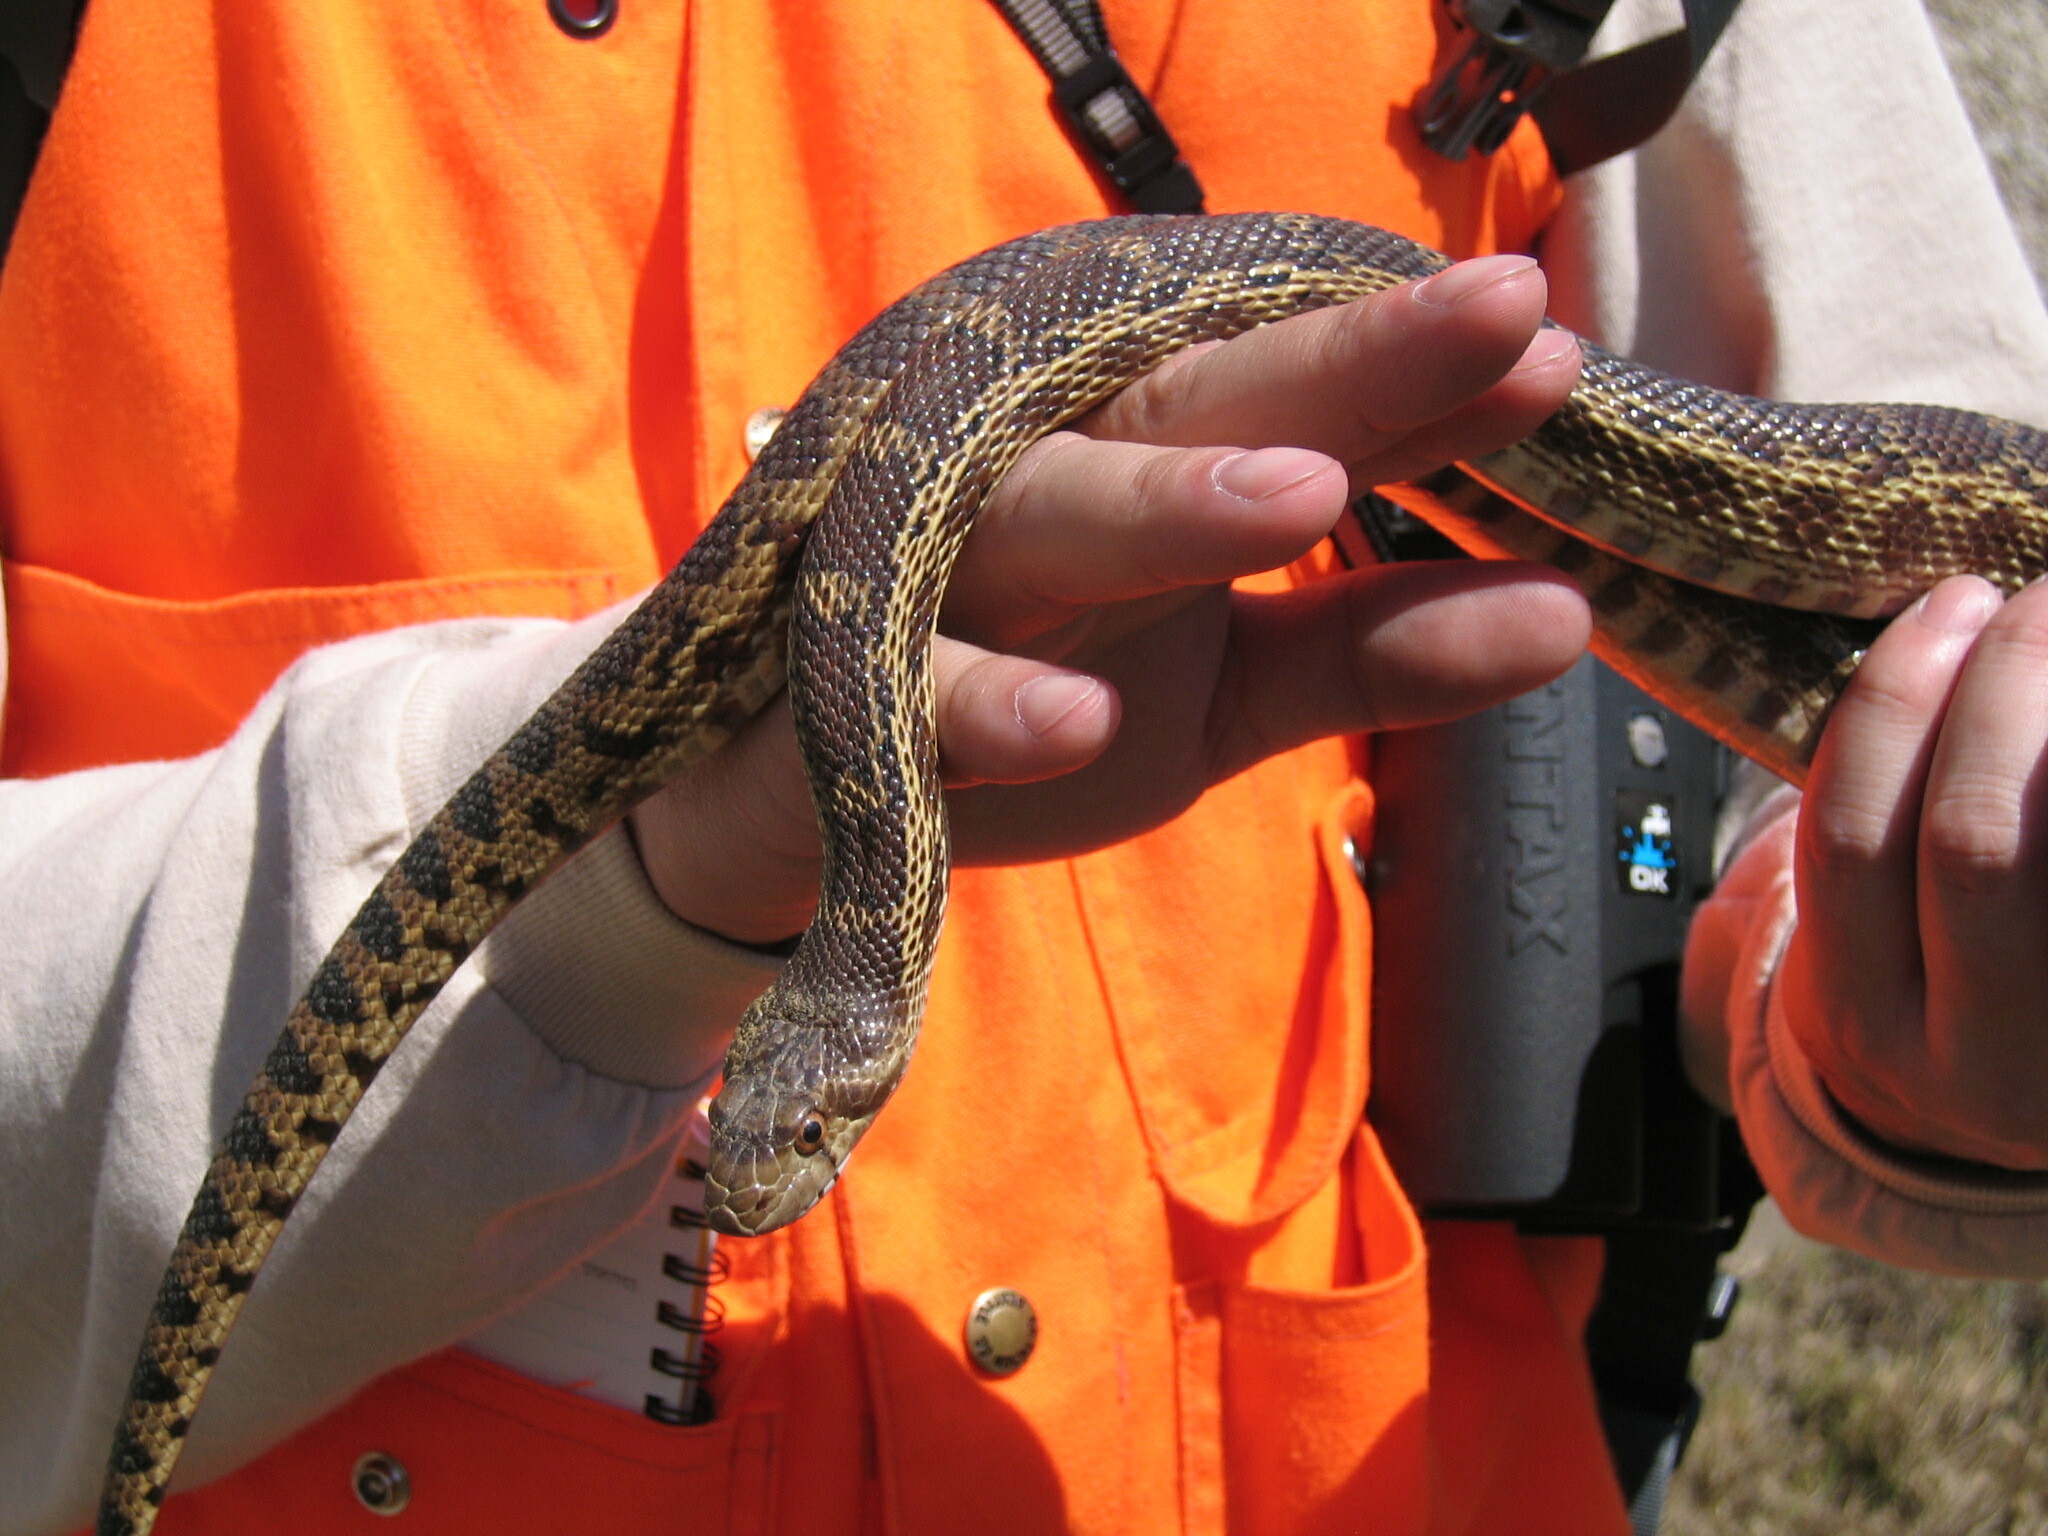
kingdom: Animalia
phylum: Chordata
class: Squamata
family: Colubridae
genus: Pituophis
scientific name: Pituophis catenifer
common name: Gopher snake
